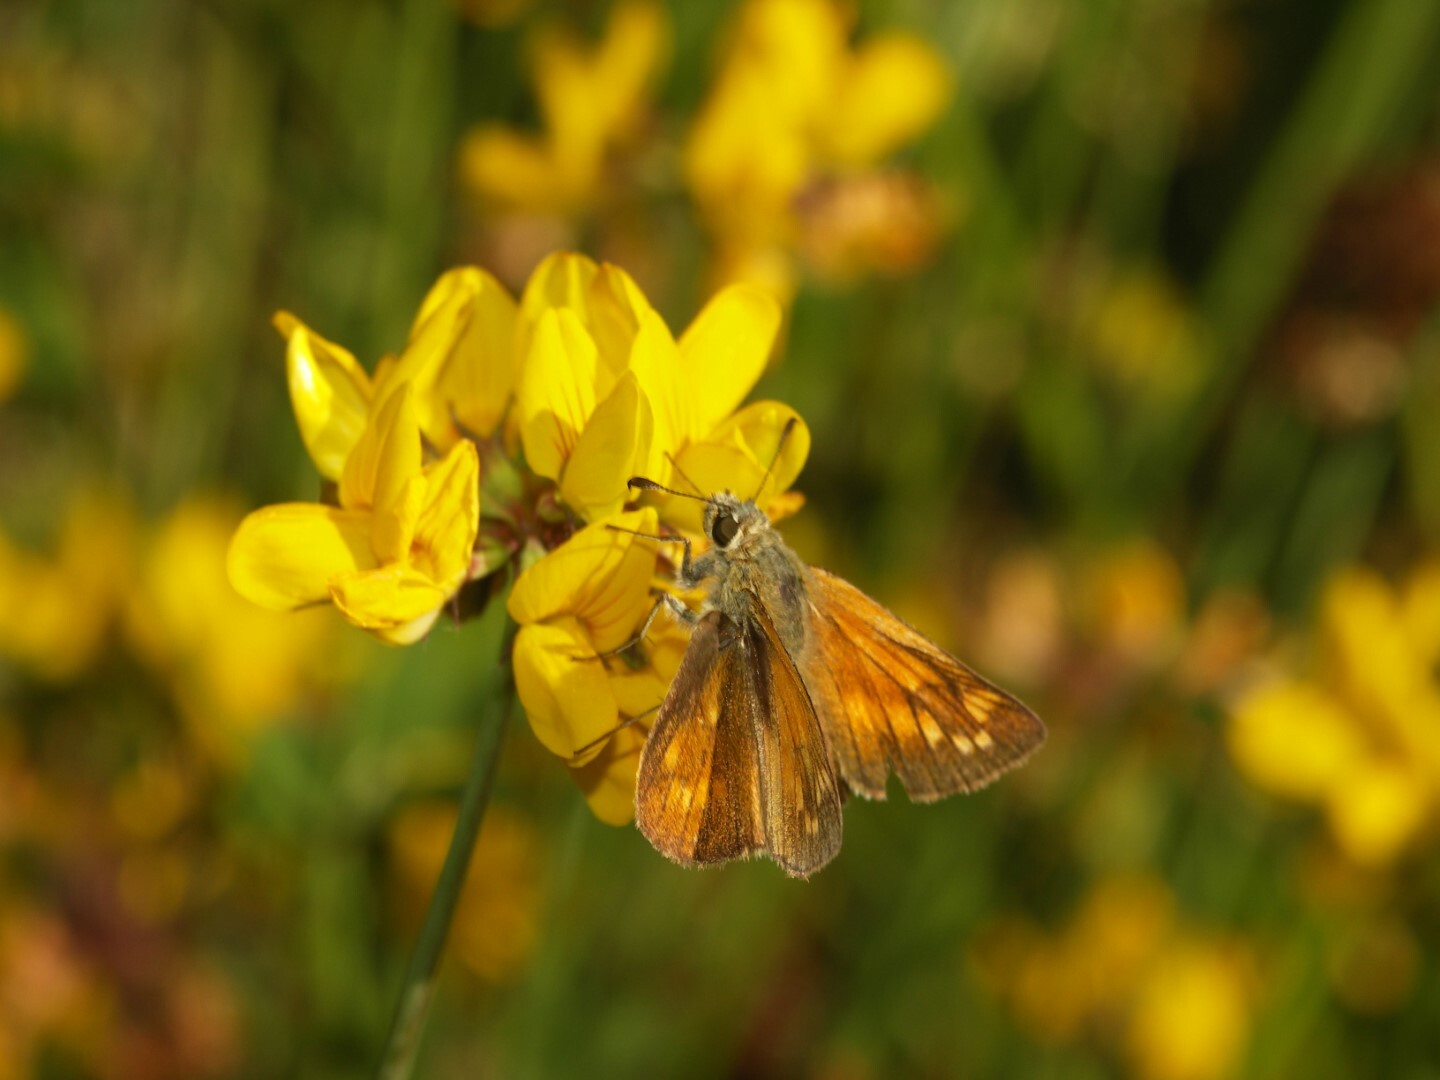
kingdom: Animalia
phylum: Arthropoda
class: Insecta
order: Lepidoptera
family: Hesperiidae
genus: Ochlodes
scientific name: Ochlodes venata
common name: Large skipper
